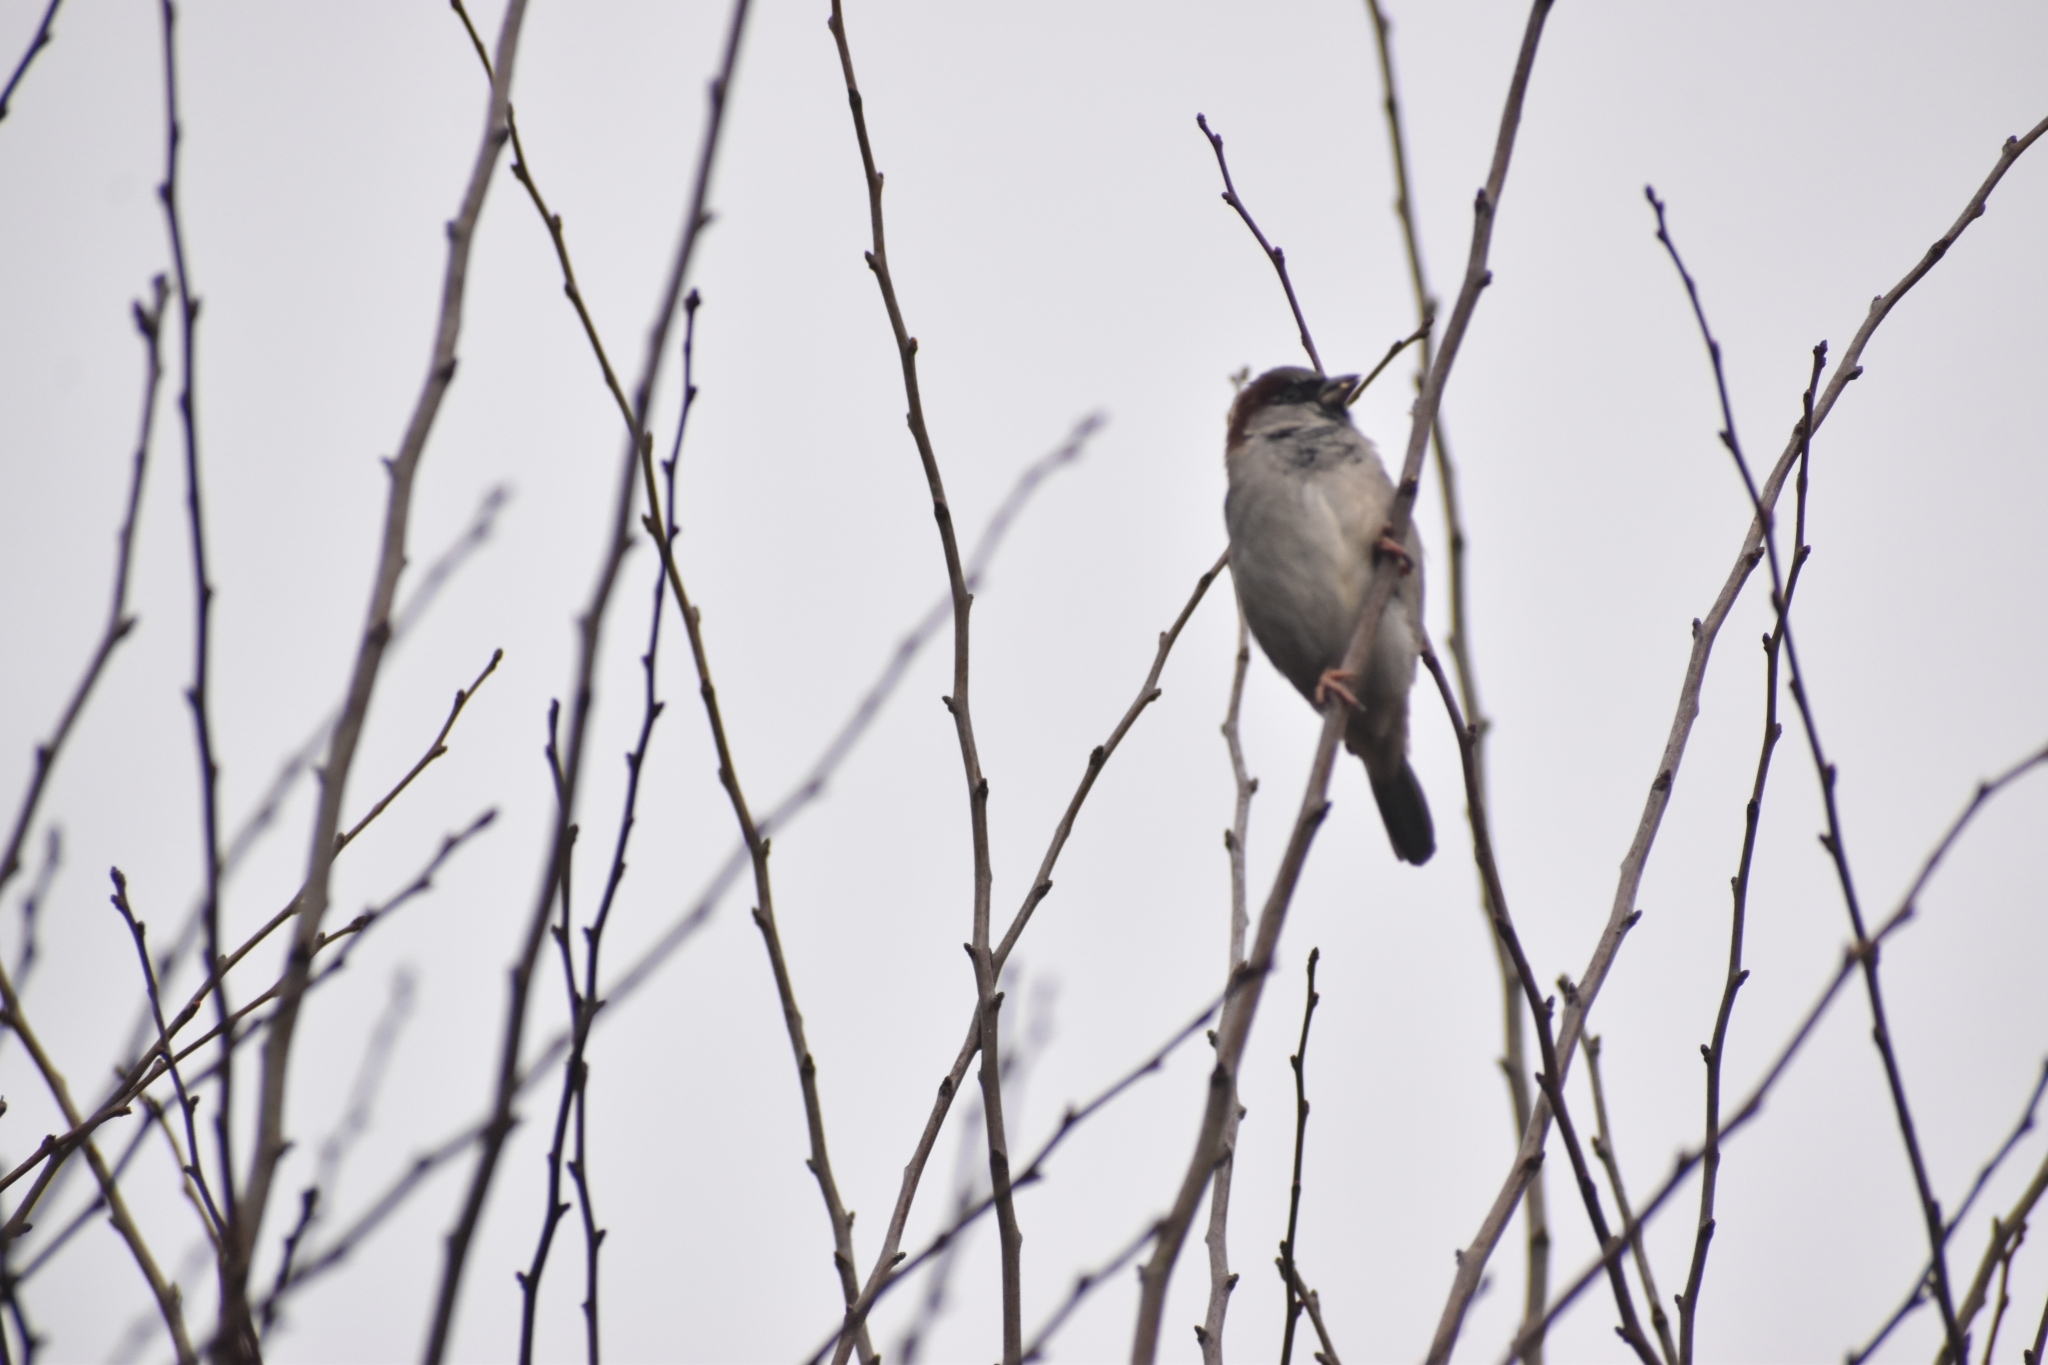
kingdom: Animalia
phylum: Chordata
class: Aves
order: Passeriformes
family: Passeridae
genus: Passer
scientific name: Passer domesticus
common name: House sparrow
